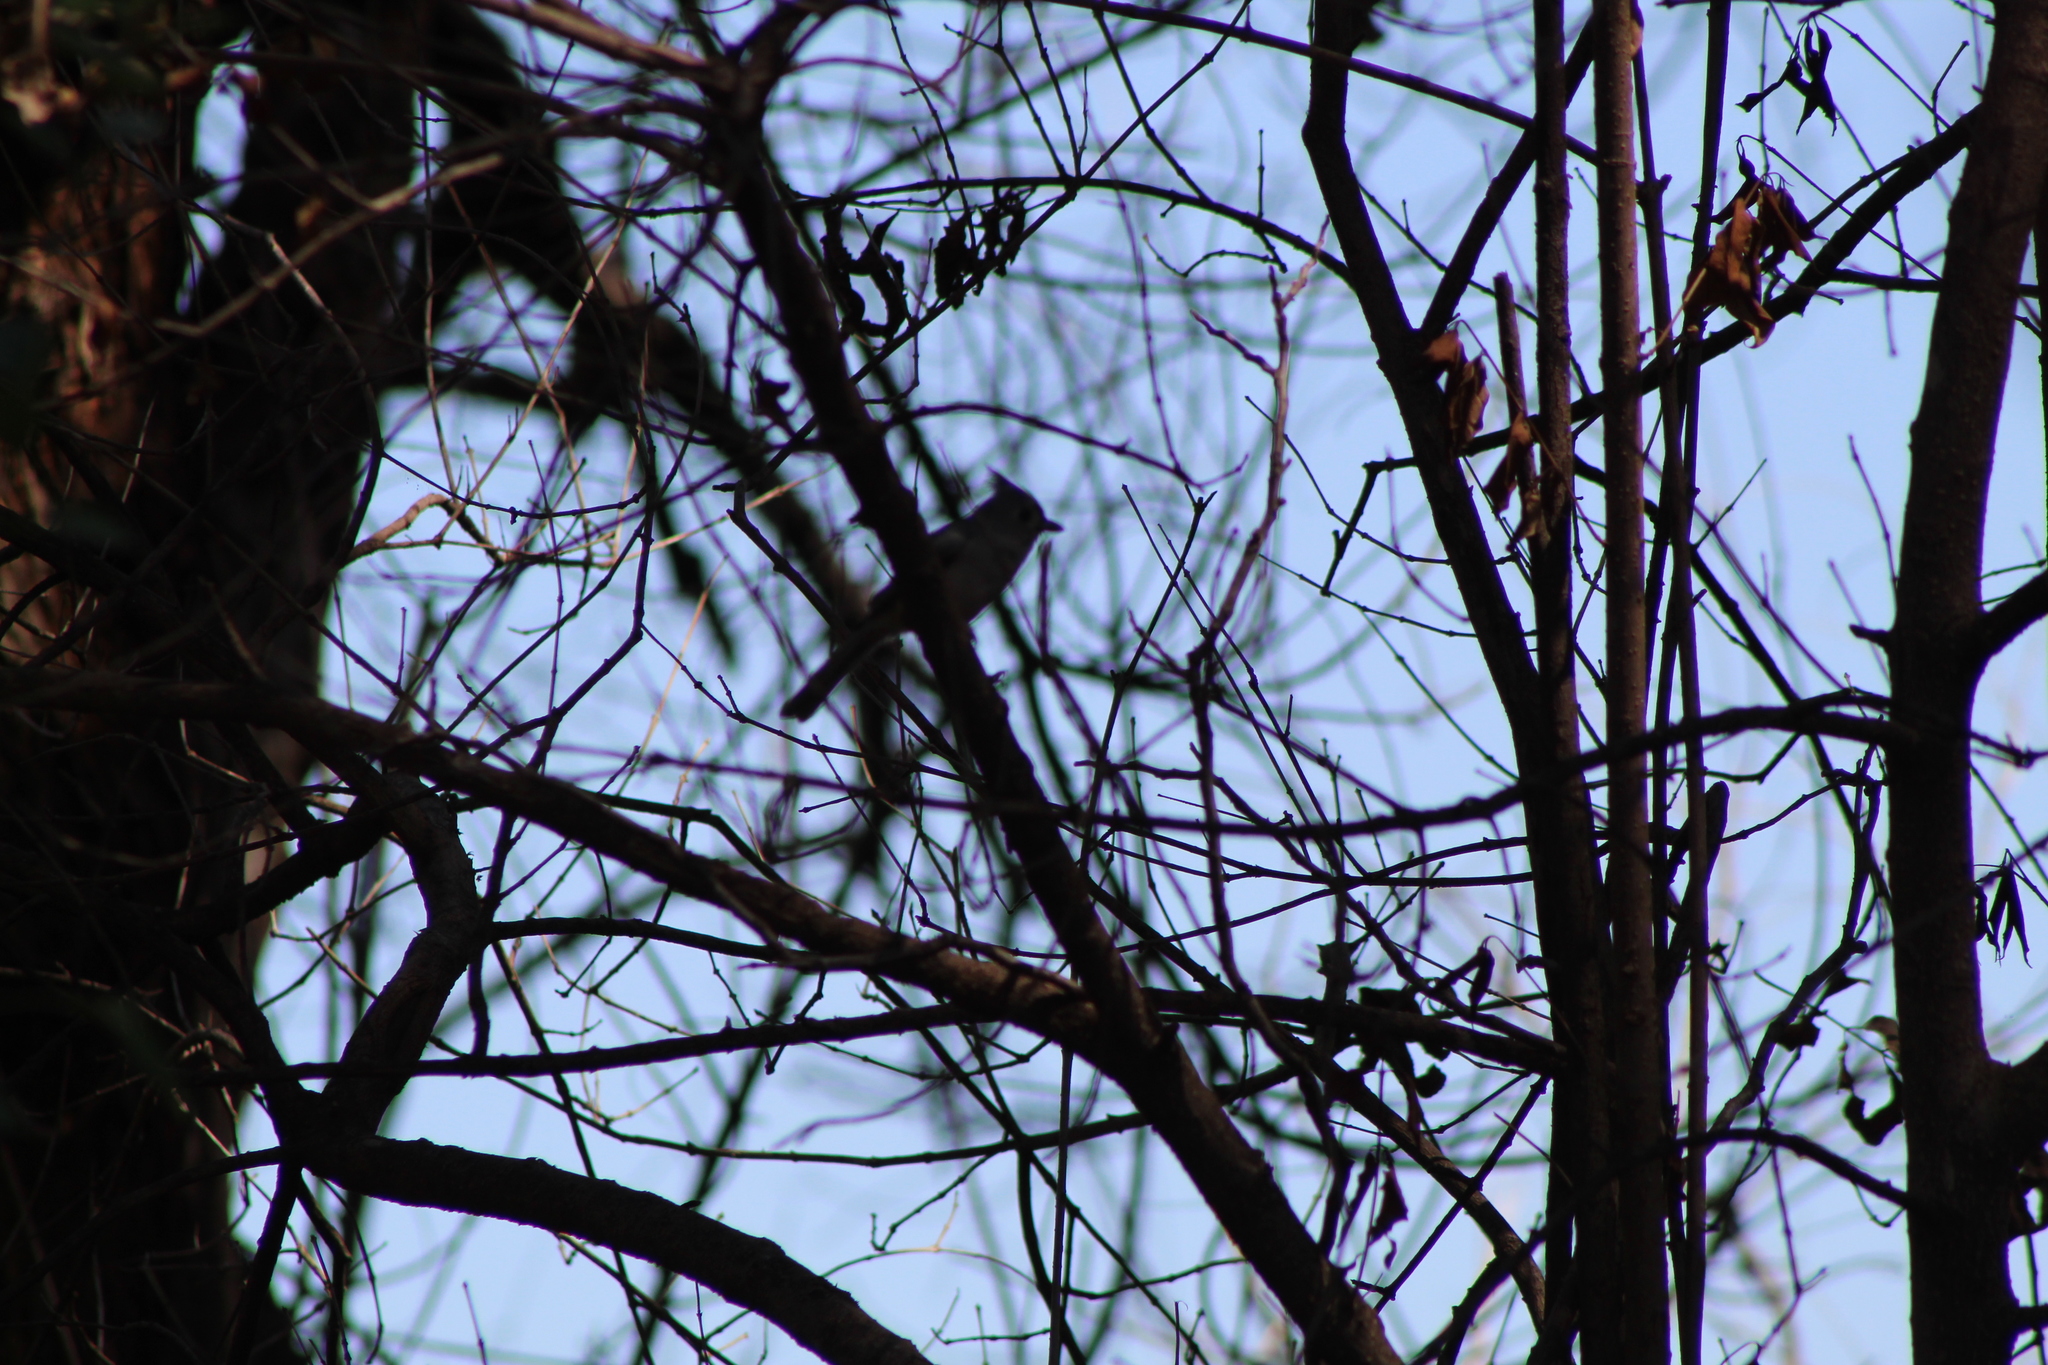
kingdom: Animalia
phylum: Chordata
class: Aves
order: Passeriformes
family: Paridae
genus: Baeolophus
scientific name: Baeolophus bicolor
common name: Tufted titmouse
